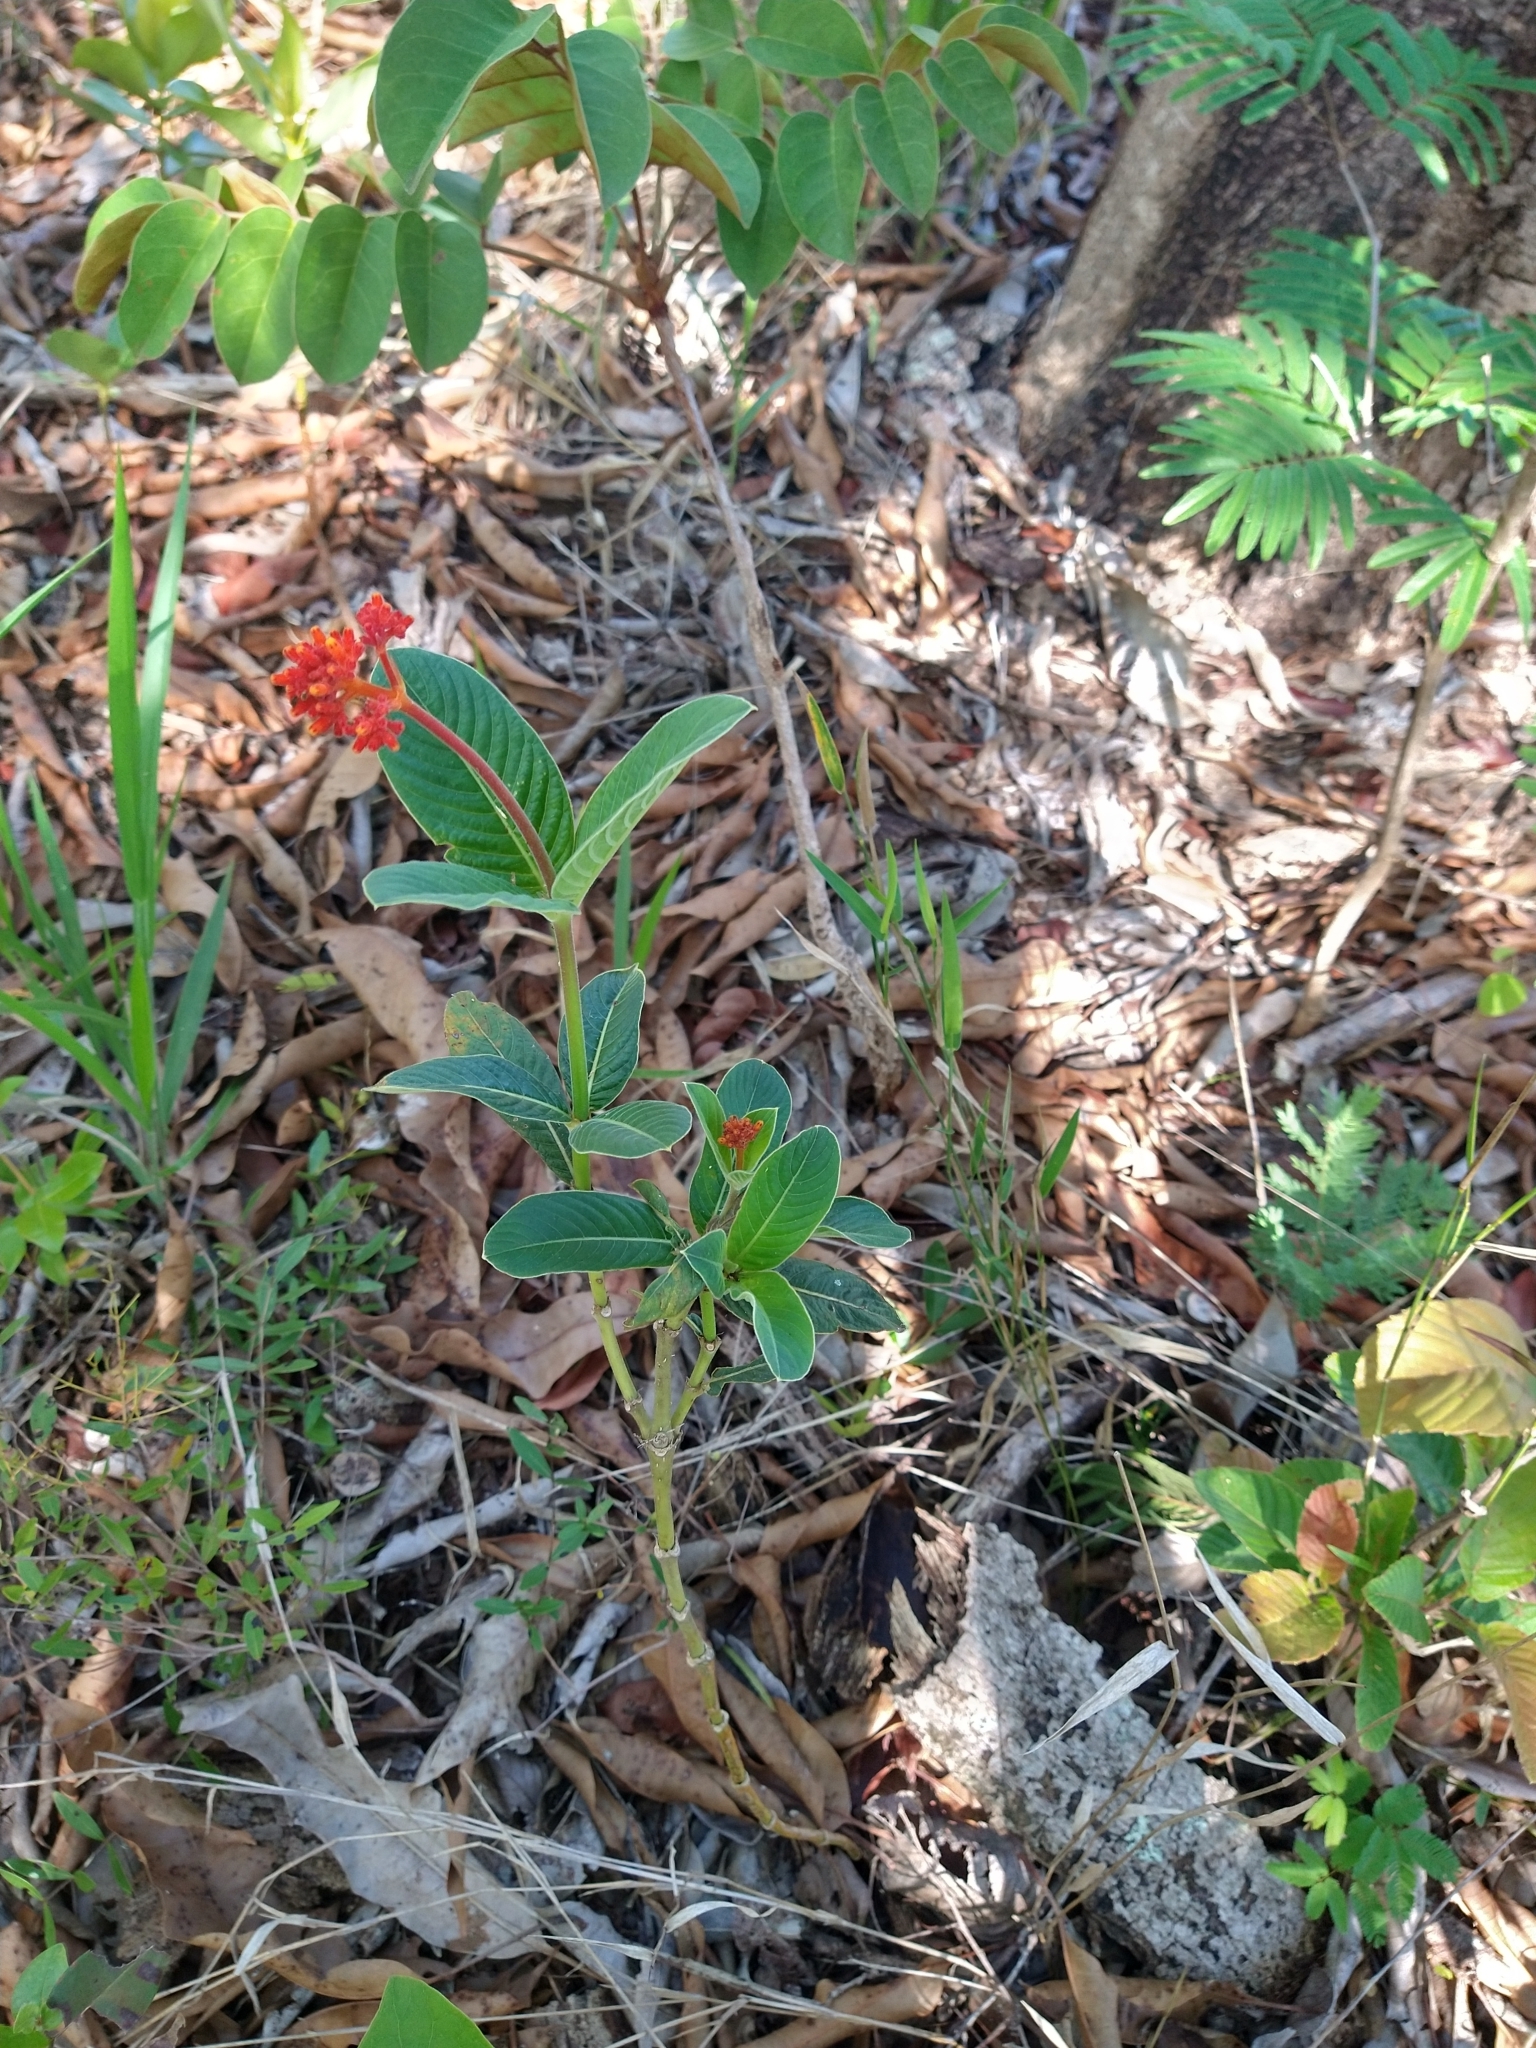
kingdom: Plantae
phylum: Tracheophyta
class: Magnoliopsida
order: Gentianales
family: Rubiaceae
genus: Palicourea
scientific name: Palicourea officinalis
